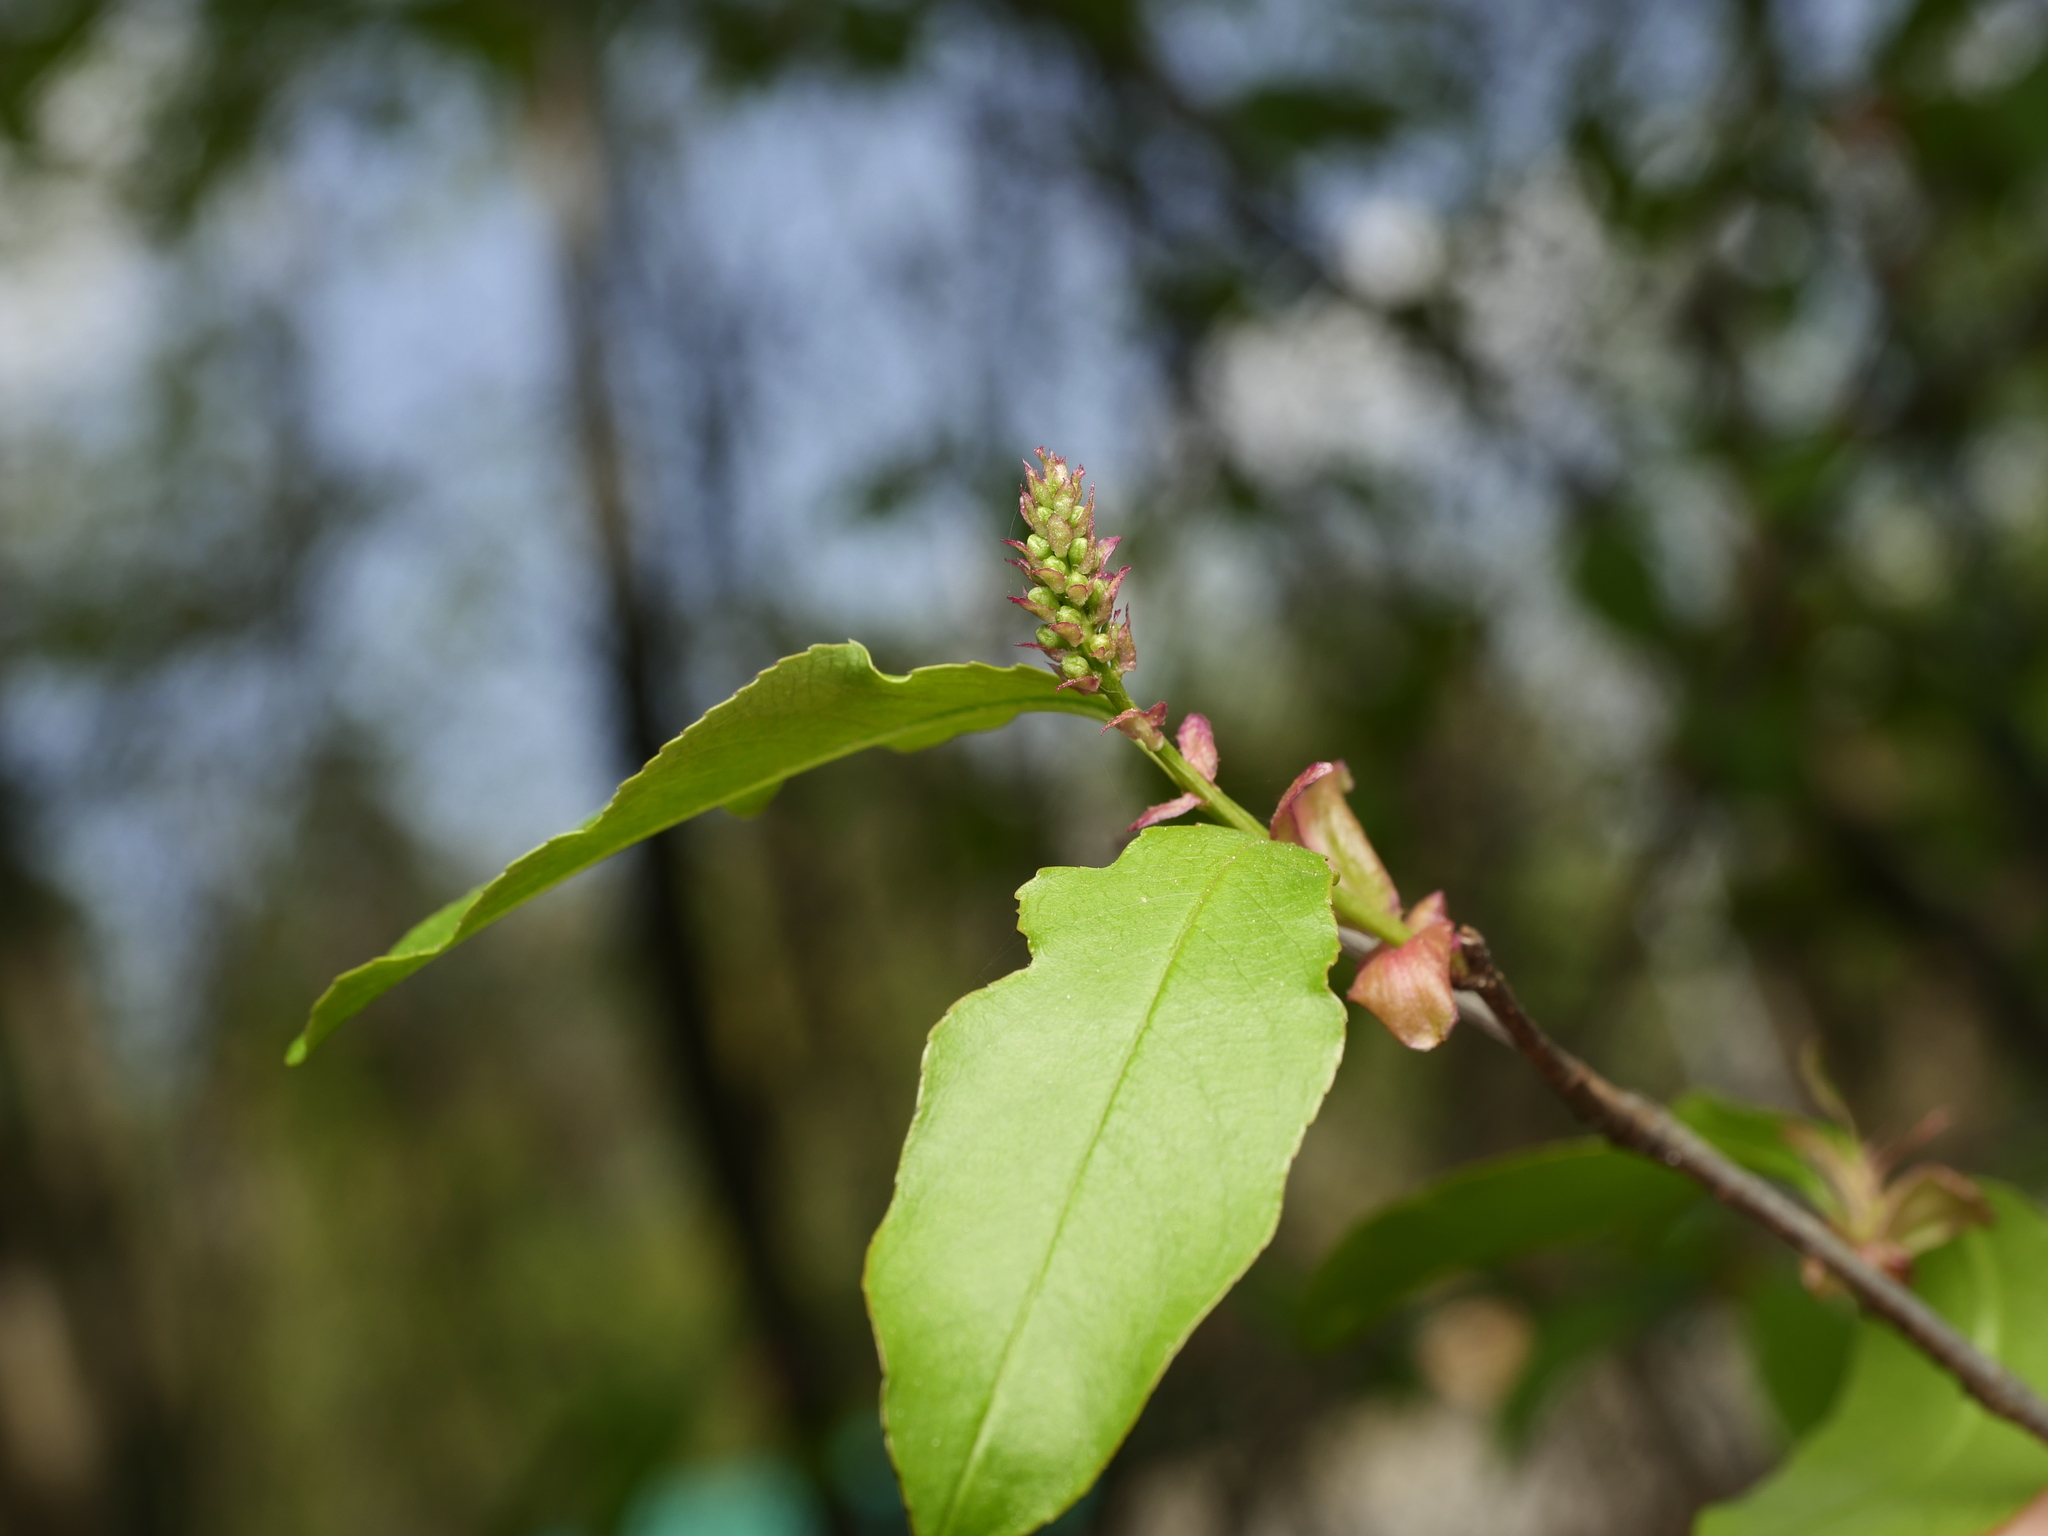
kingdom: Plantae
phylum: Tracheophyta
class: Magnoliopsida
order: Rosales
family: Rosaceae
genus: Prunus
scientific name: Prunus serotina
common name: Black cherry
